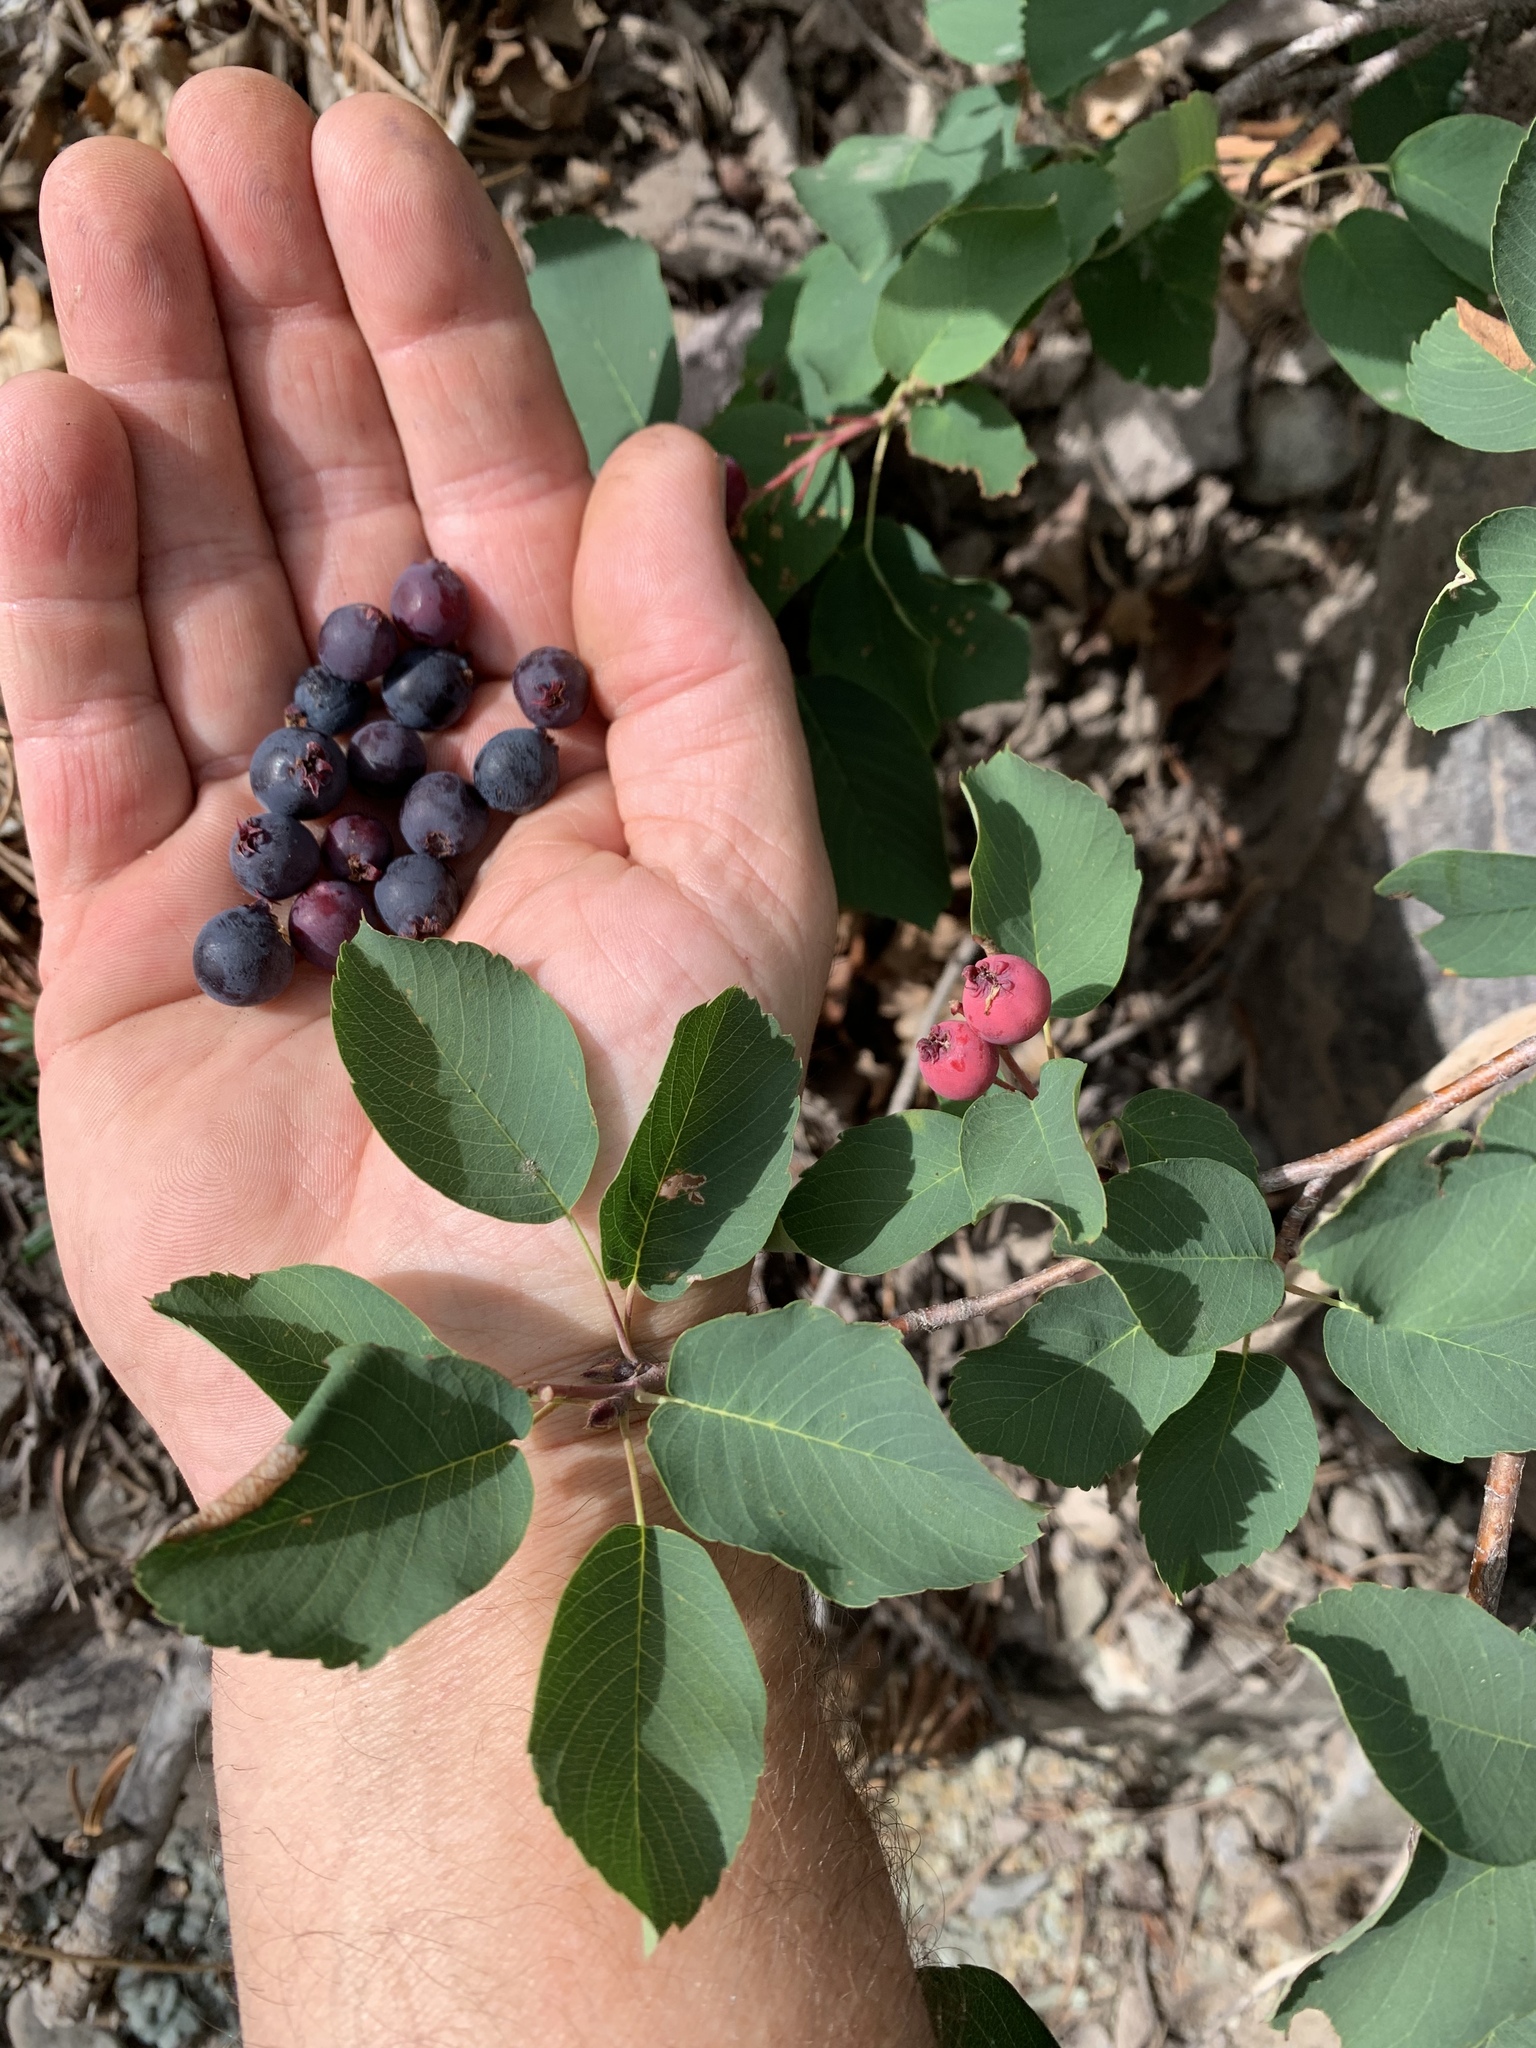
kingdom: Plantae
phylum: Tracheophyta
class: Magnoliopsida
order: Rosales
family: Rosaceae
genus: Amelanchier
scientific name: Amelanchier alnifolia
